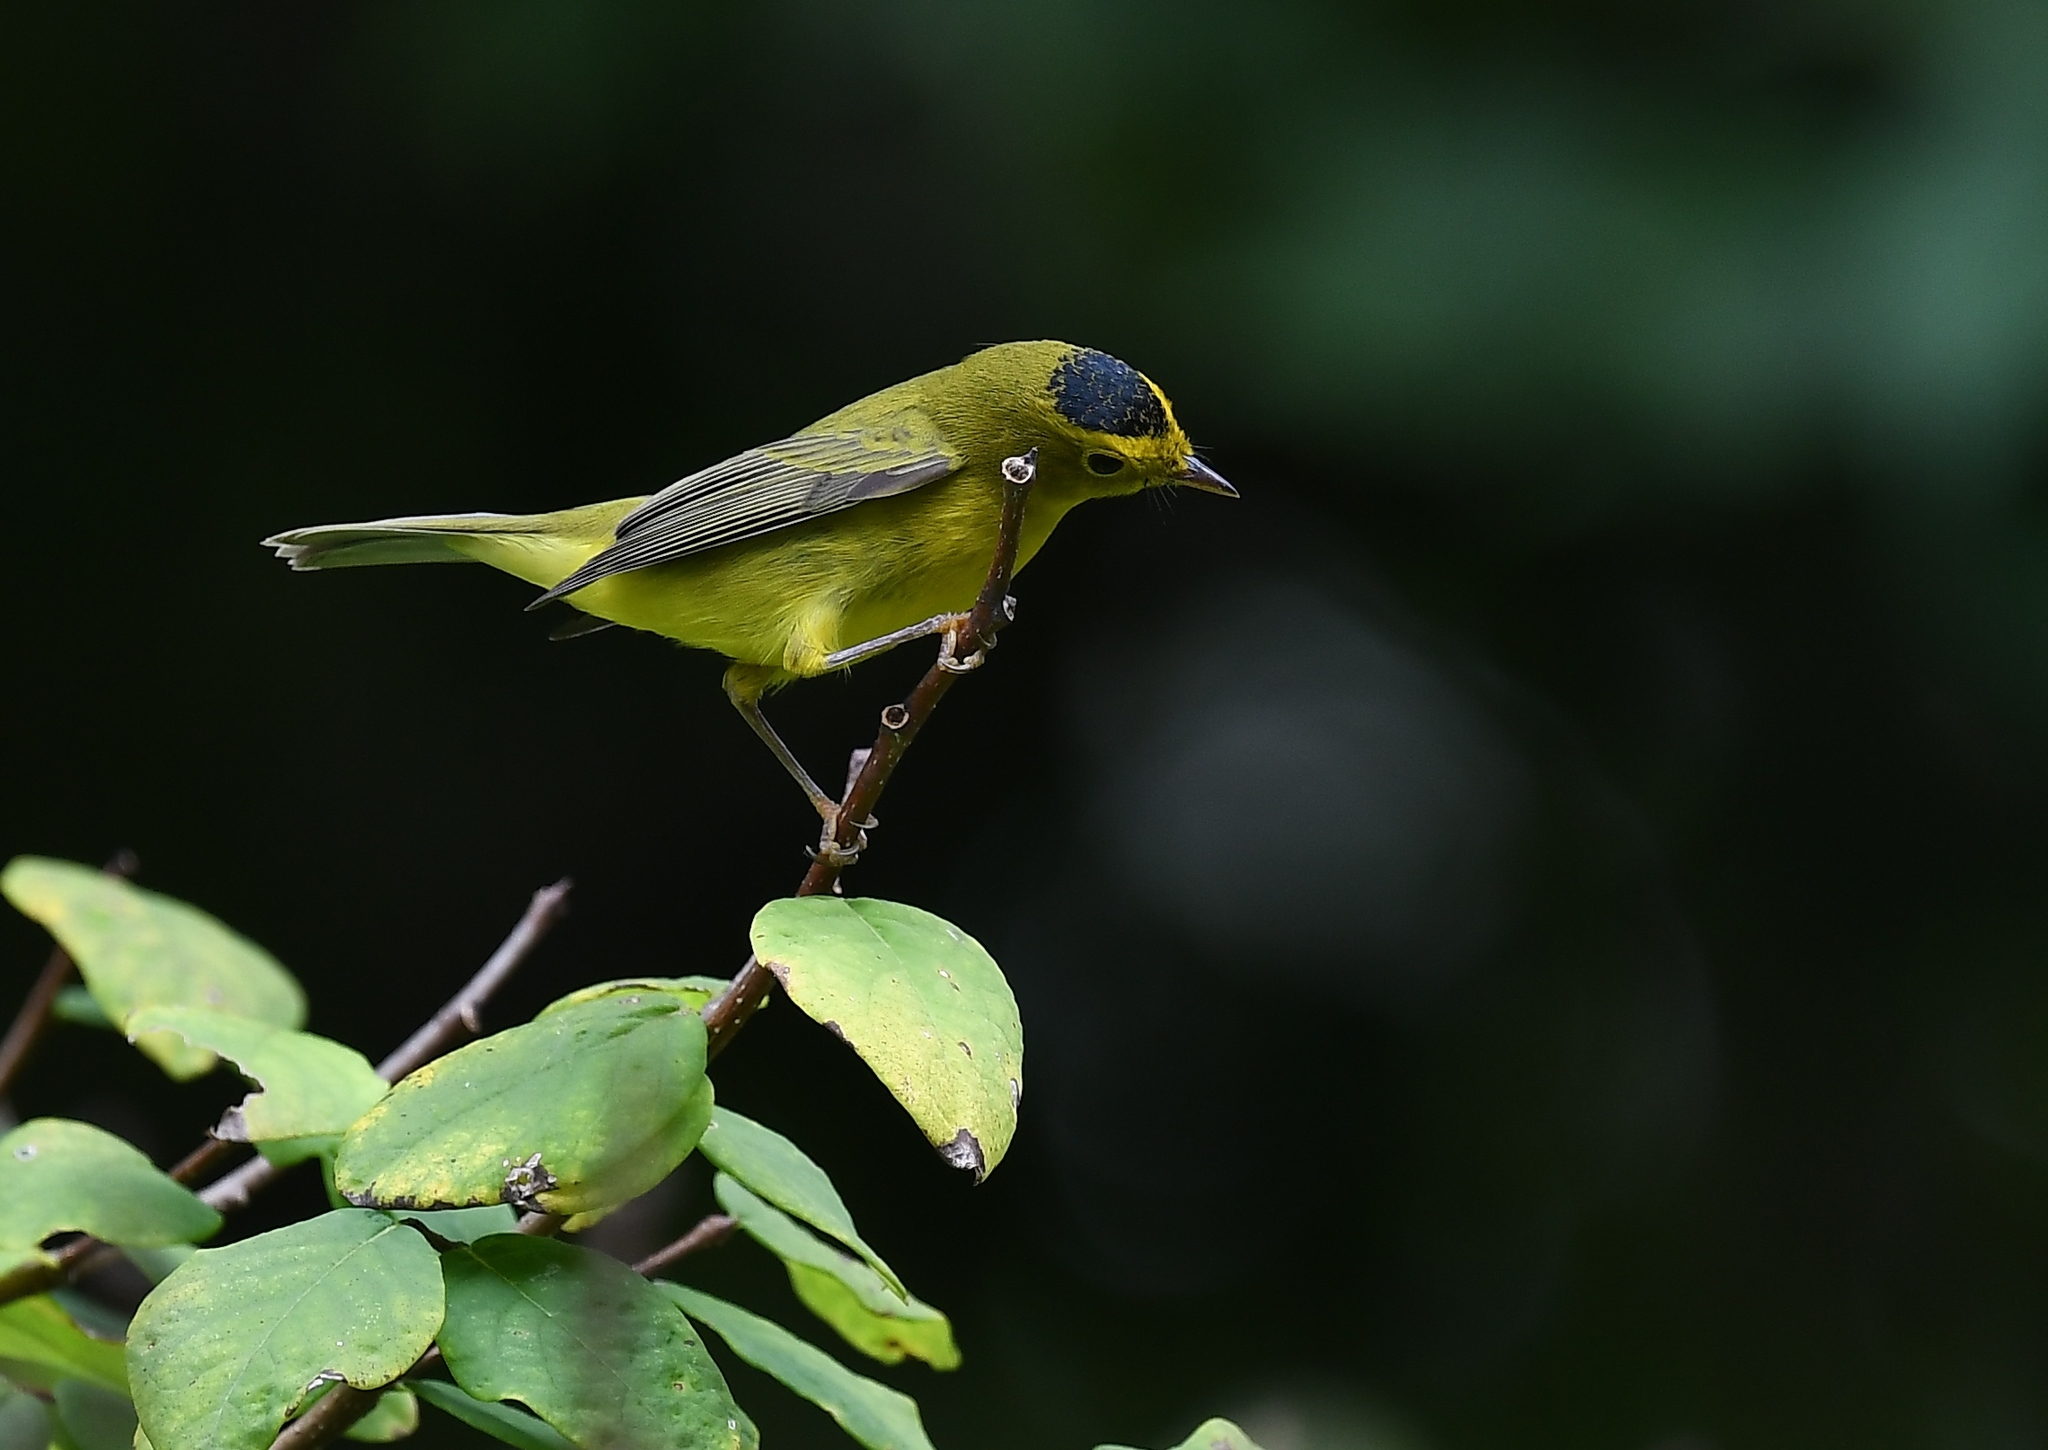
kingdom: Animalia
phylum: Chordata
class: Aves
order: Passeriformes
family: Parulidae
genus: Cardellina
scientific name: Cardellina pusilla
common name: Wilson's warbler
